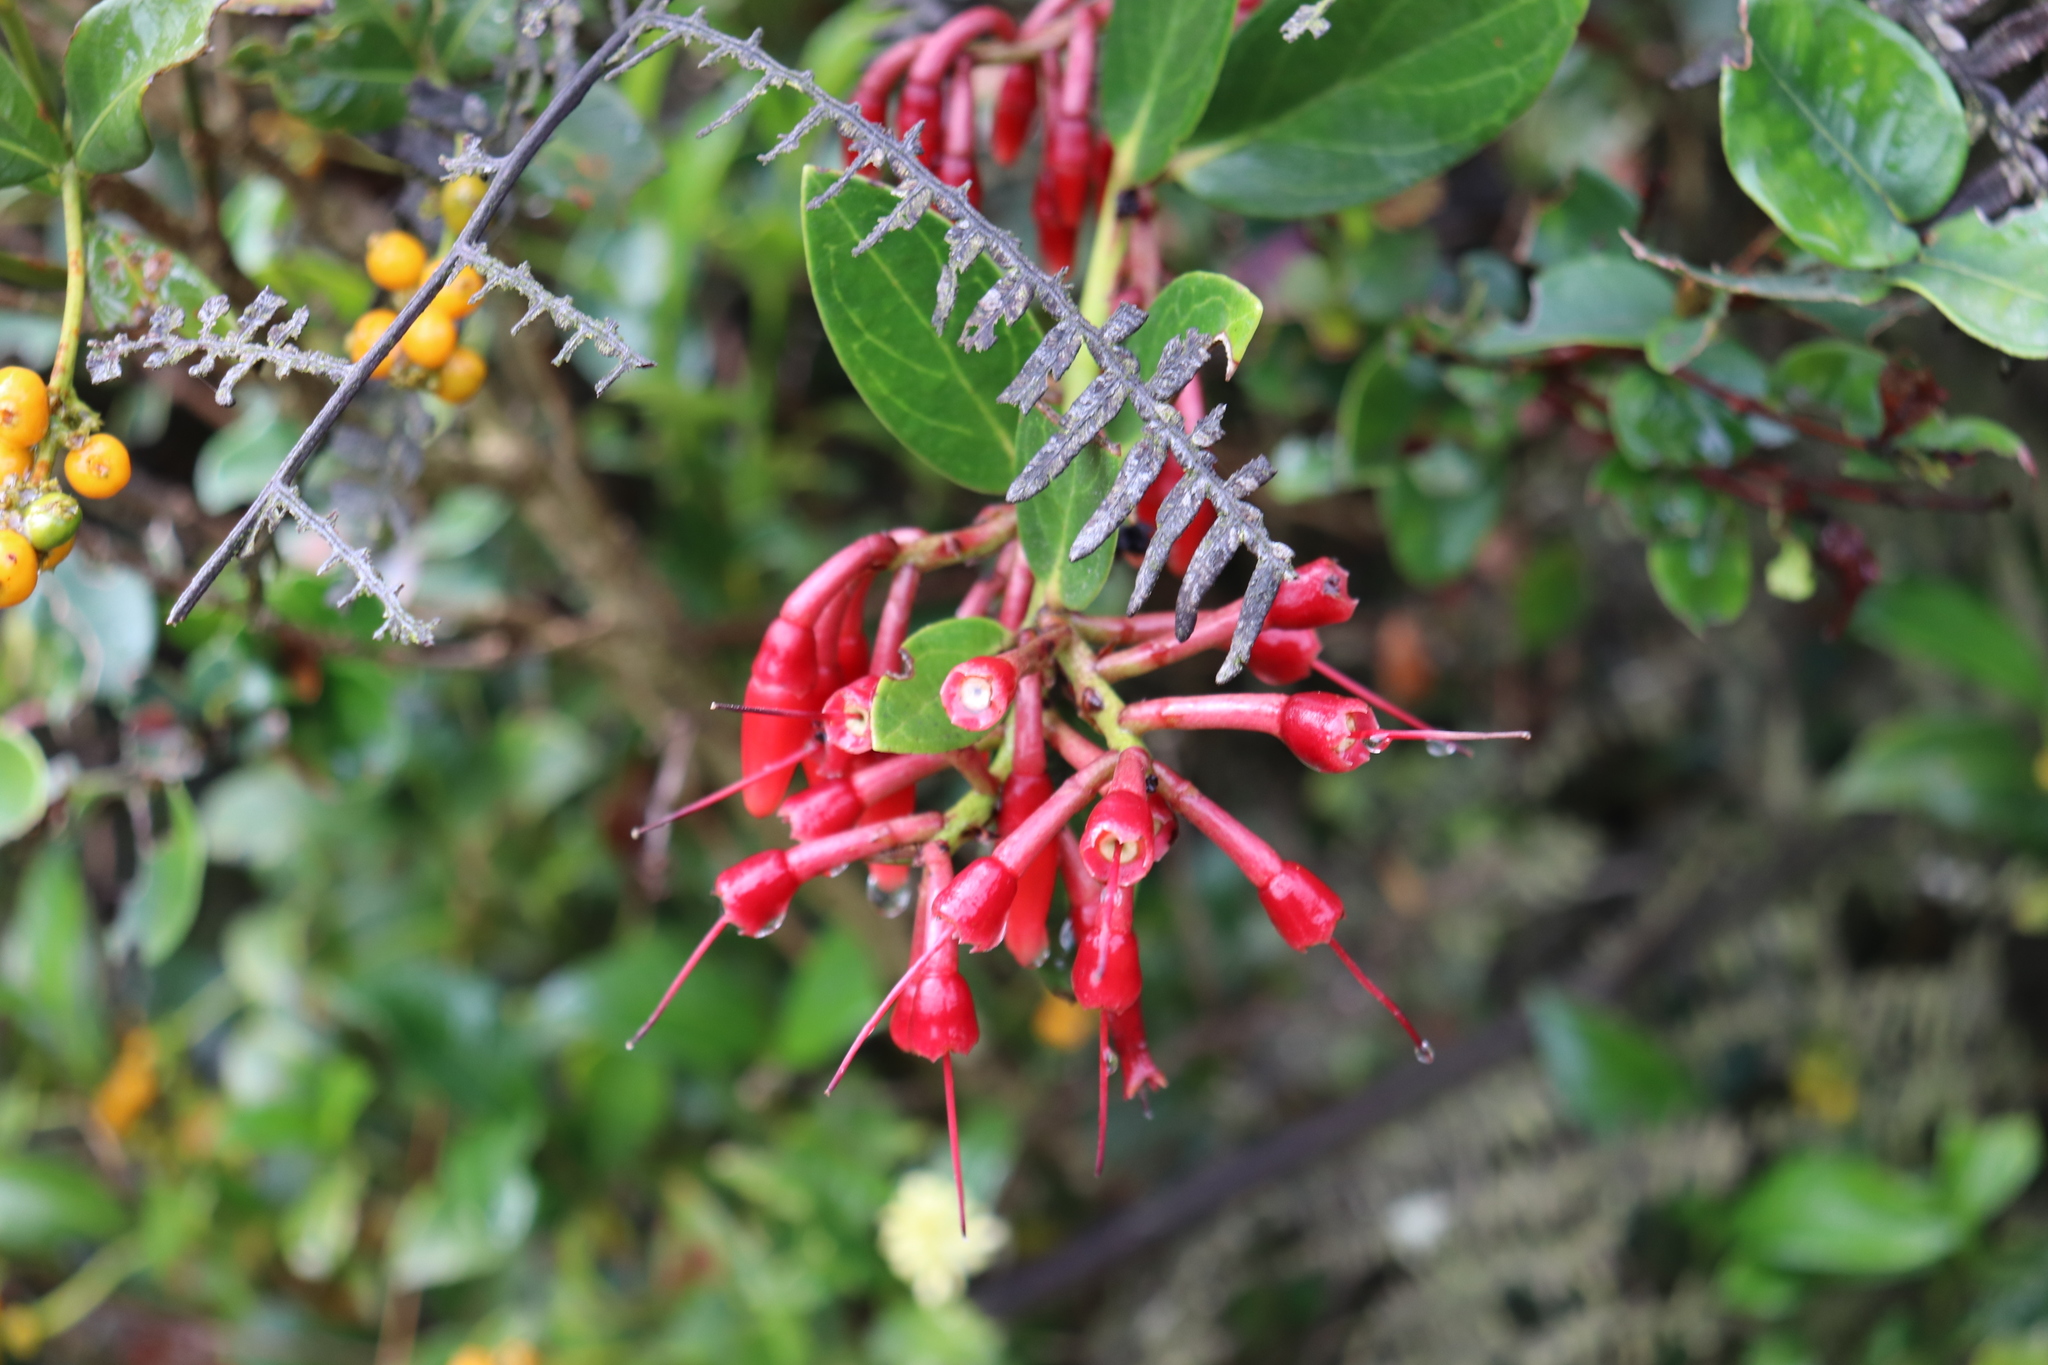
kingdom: Plantae
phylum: Tracheophyta
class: Magnoliopsida
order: Ericales
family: Ericaceae
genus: Macleania
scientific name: Macleania rupestris
